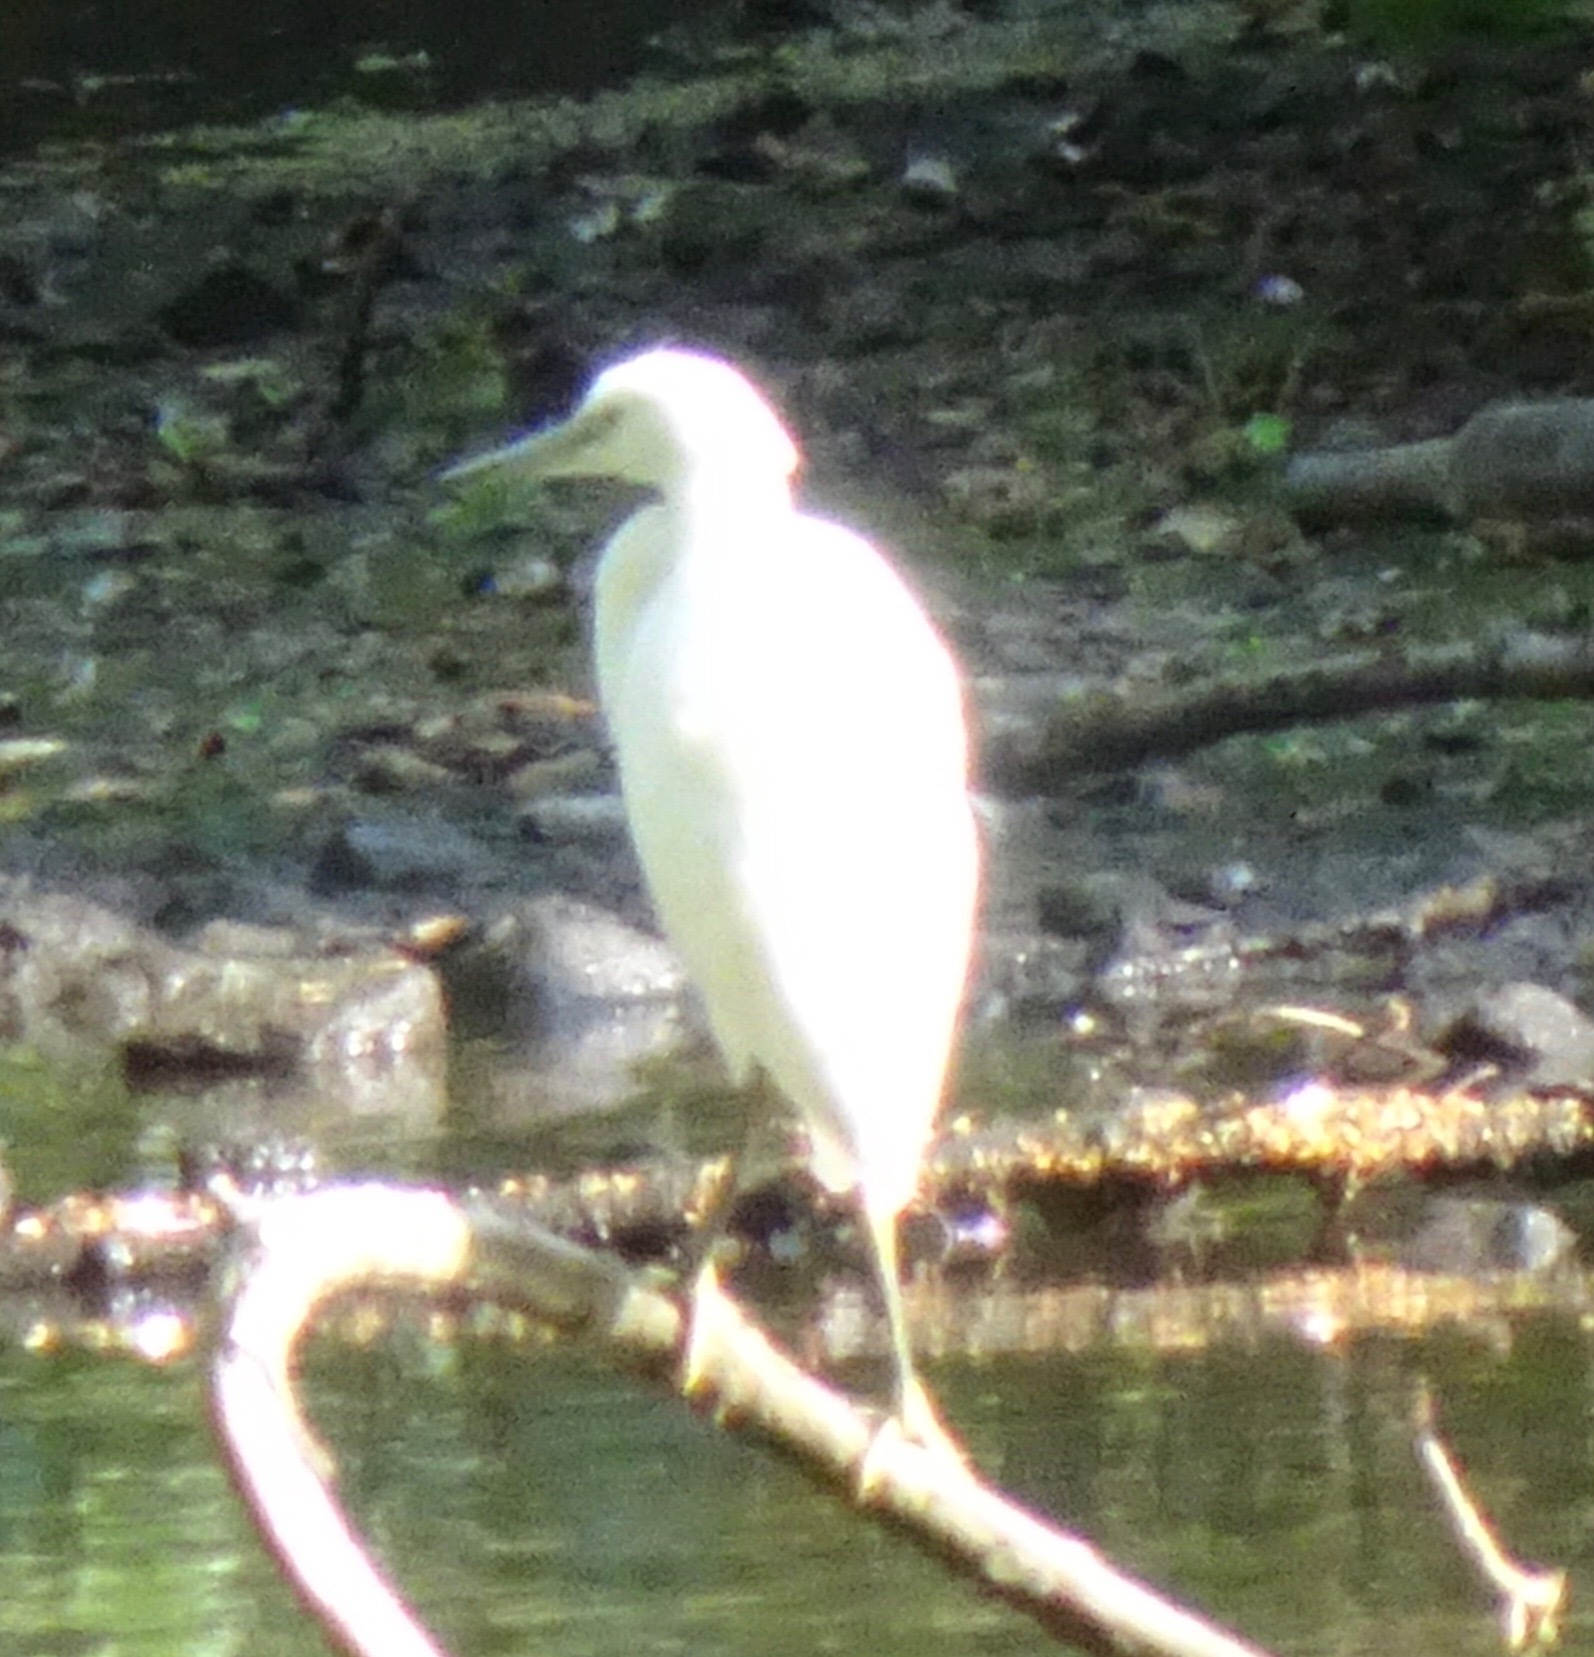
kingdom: Animalia
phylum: Chordata
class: Aves
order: Pelecaniformes
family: Ardeidae
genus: Egretta
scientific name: Egretta garzetta
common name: Little egret
